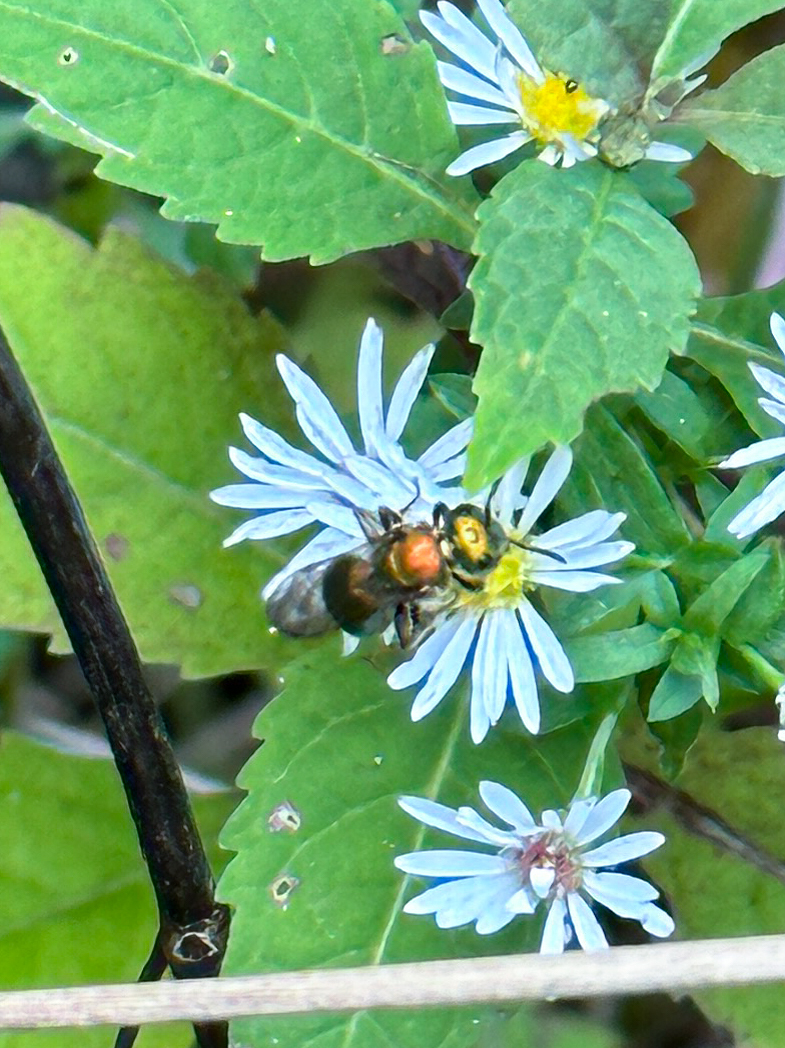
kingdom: Animalia
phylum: Arthropoda
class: Insecta
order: Hymenoptera
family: Halictidae
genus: Augochlora
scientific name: Augochlora pura
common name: Pure green sweat bee
